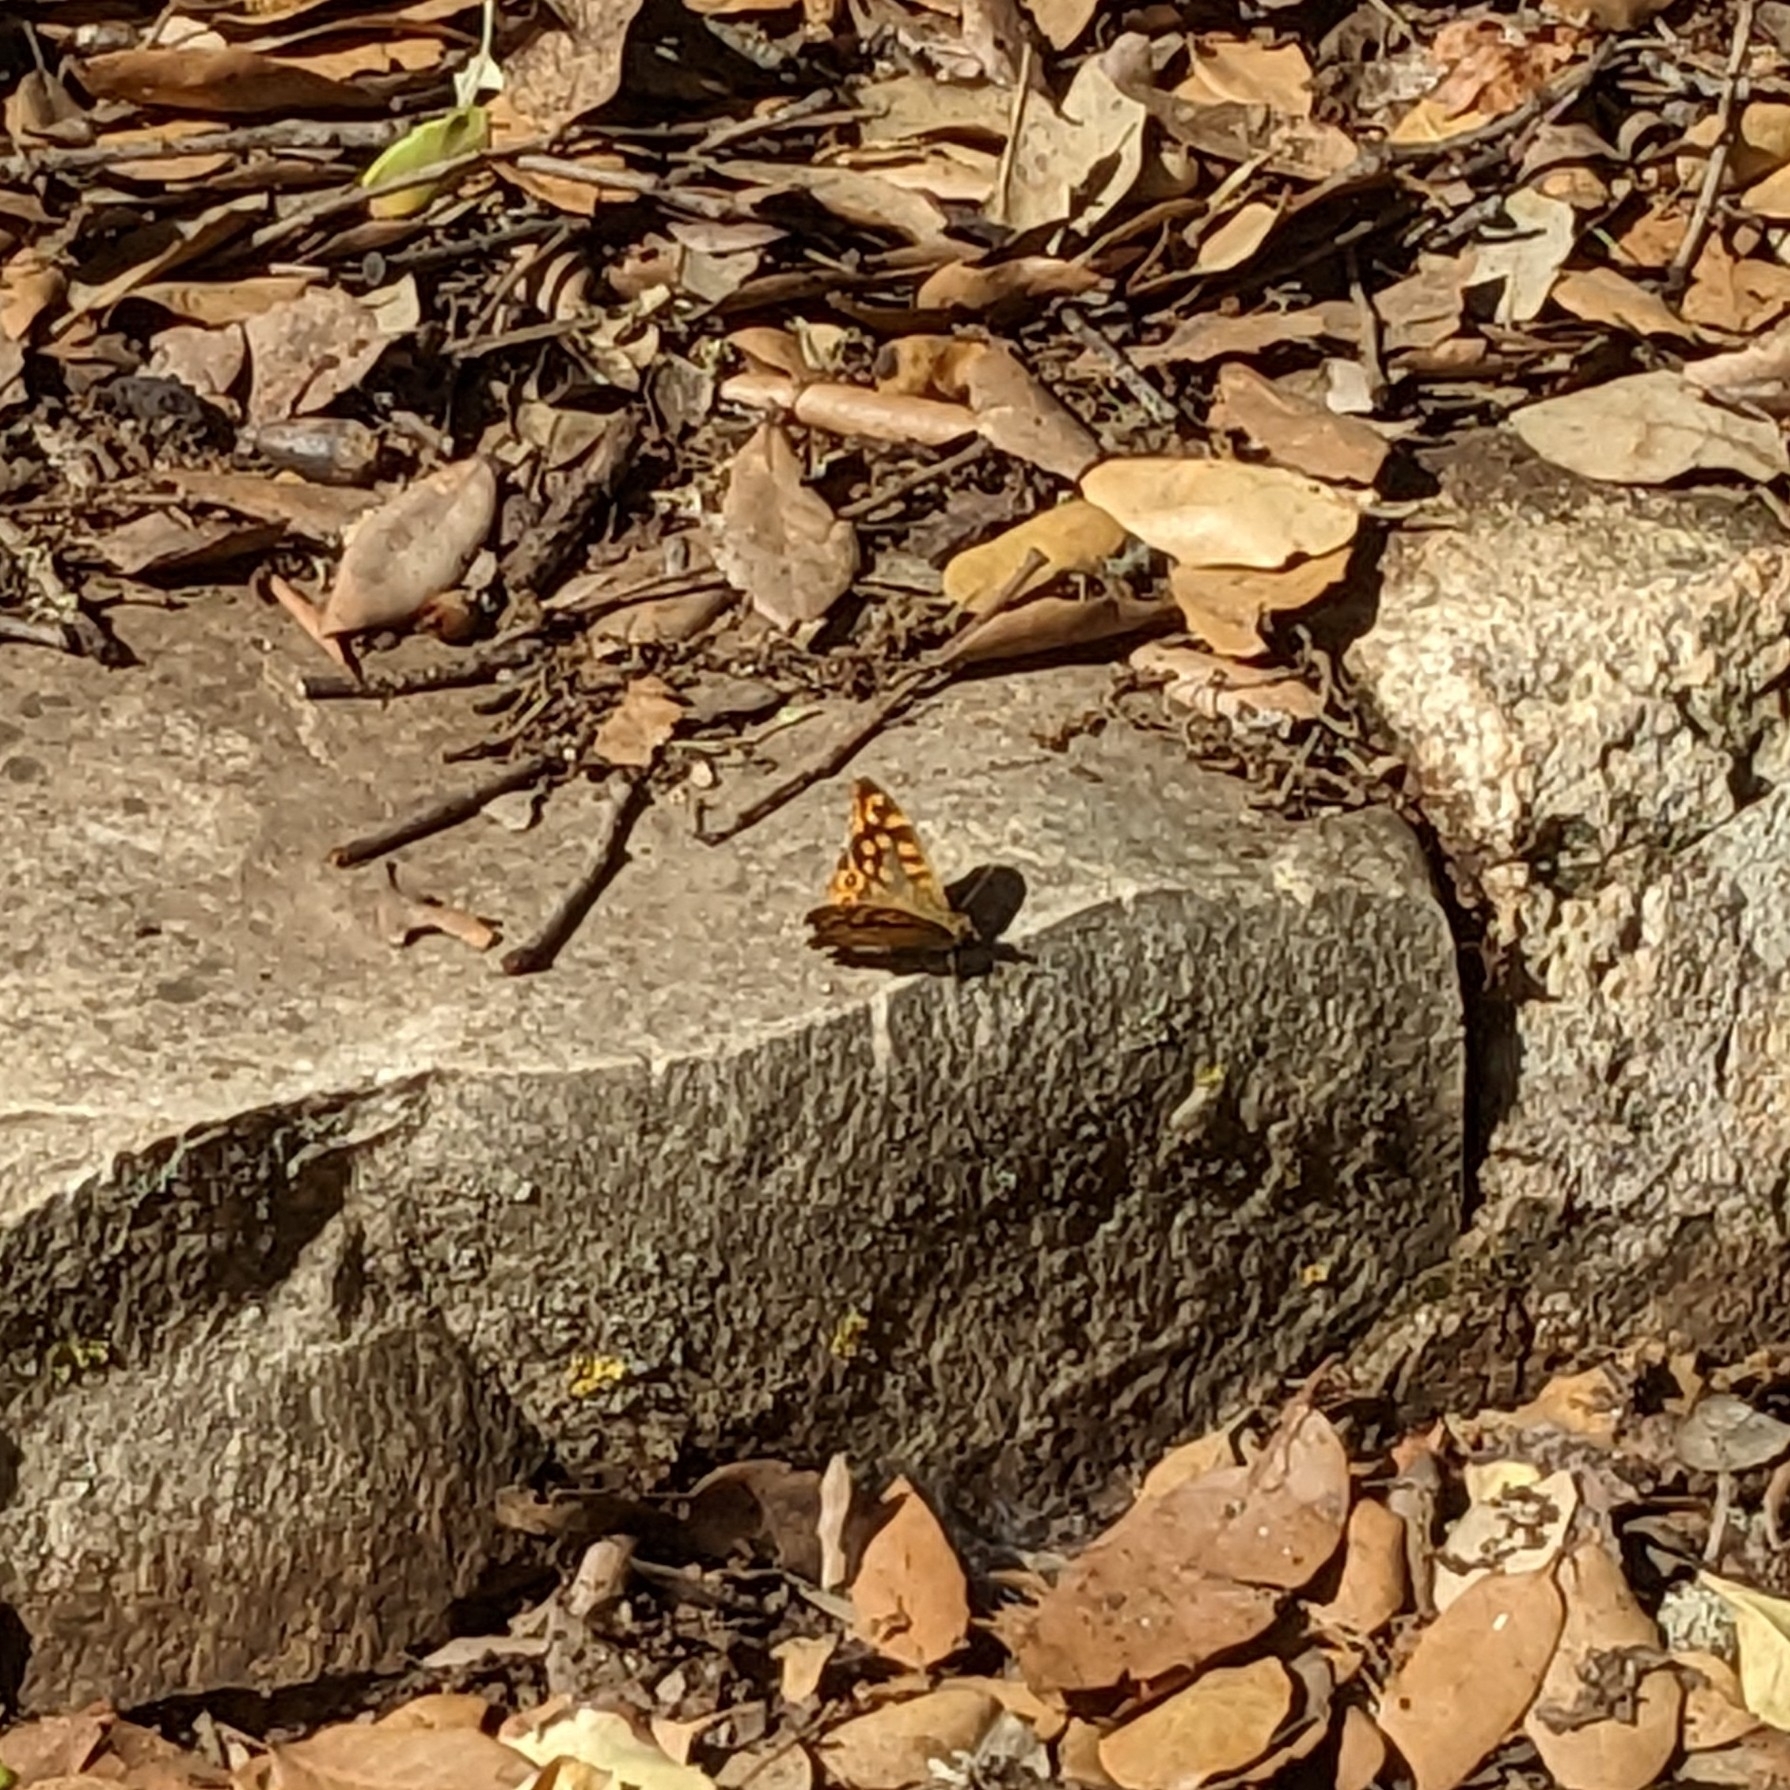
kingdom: Animalia
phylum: Arthropoda
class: Insecta
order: Lepidoptera
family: Nymphalidae
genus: Pararge
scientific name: Pararge aegeria
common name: Speckled wood
